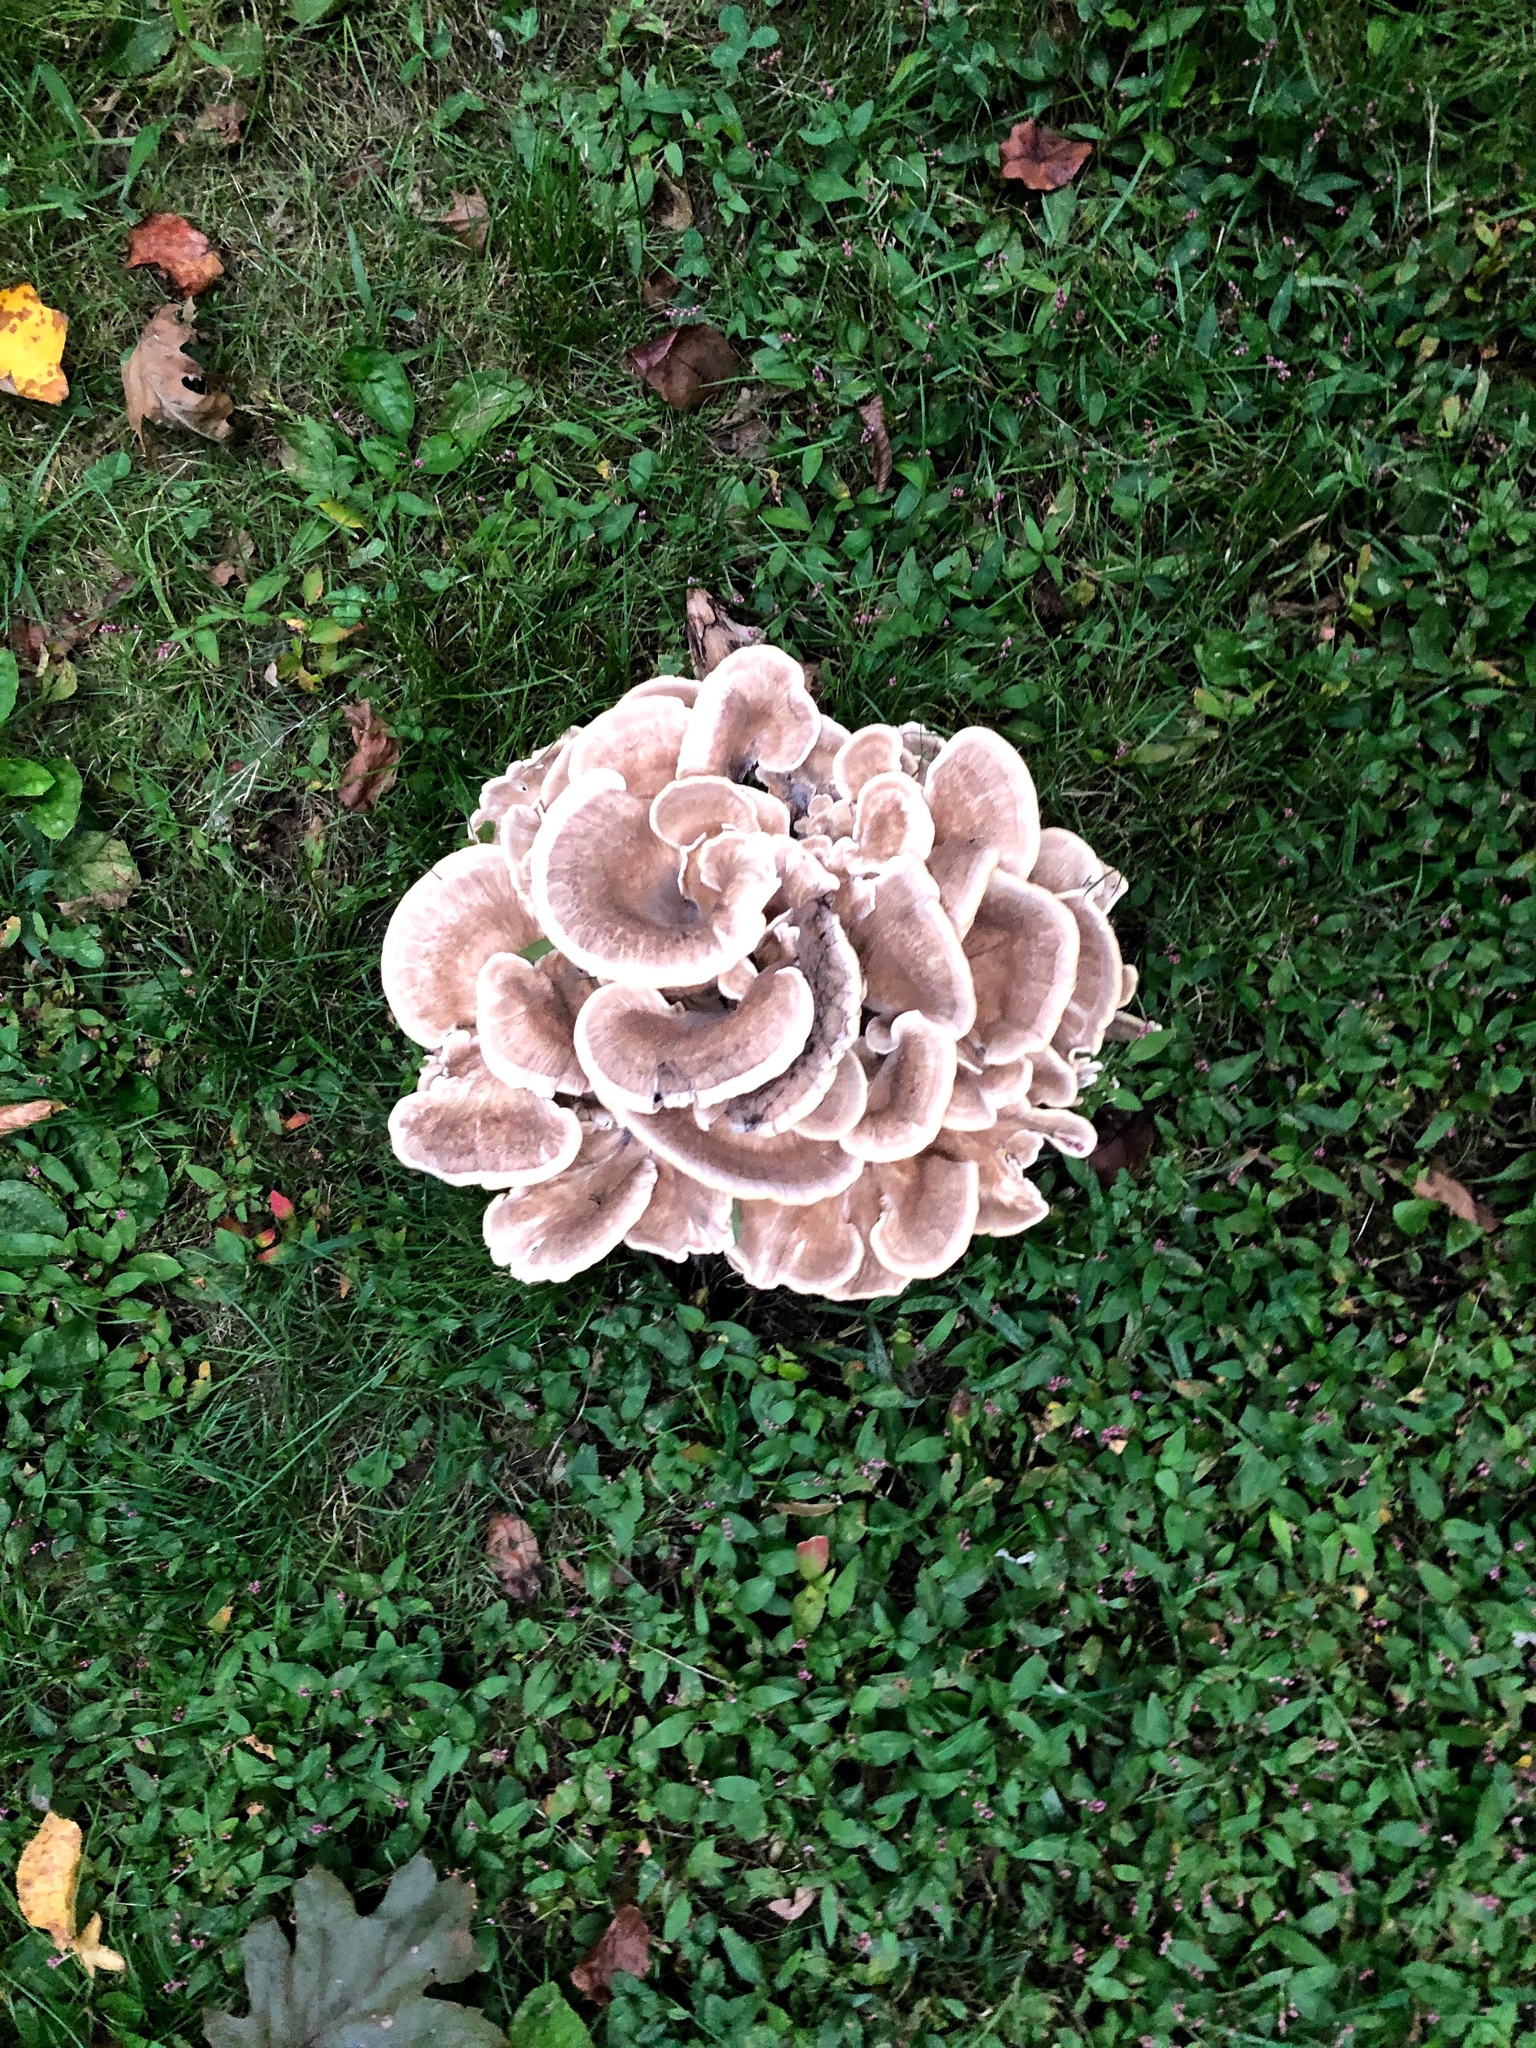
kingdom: Fungi
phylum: Basidiomycota
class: Agaricomycetes
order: Polyporales
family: Meripilaceae
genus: Meripilus
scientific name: Meripilus sumstinei
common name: Black-staining polypore
